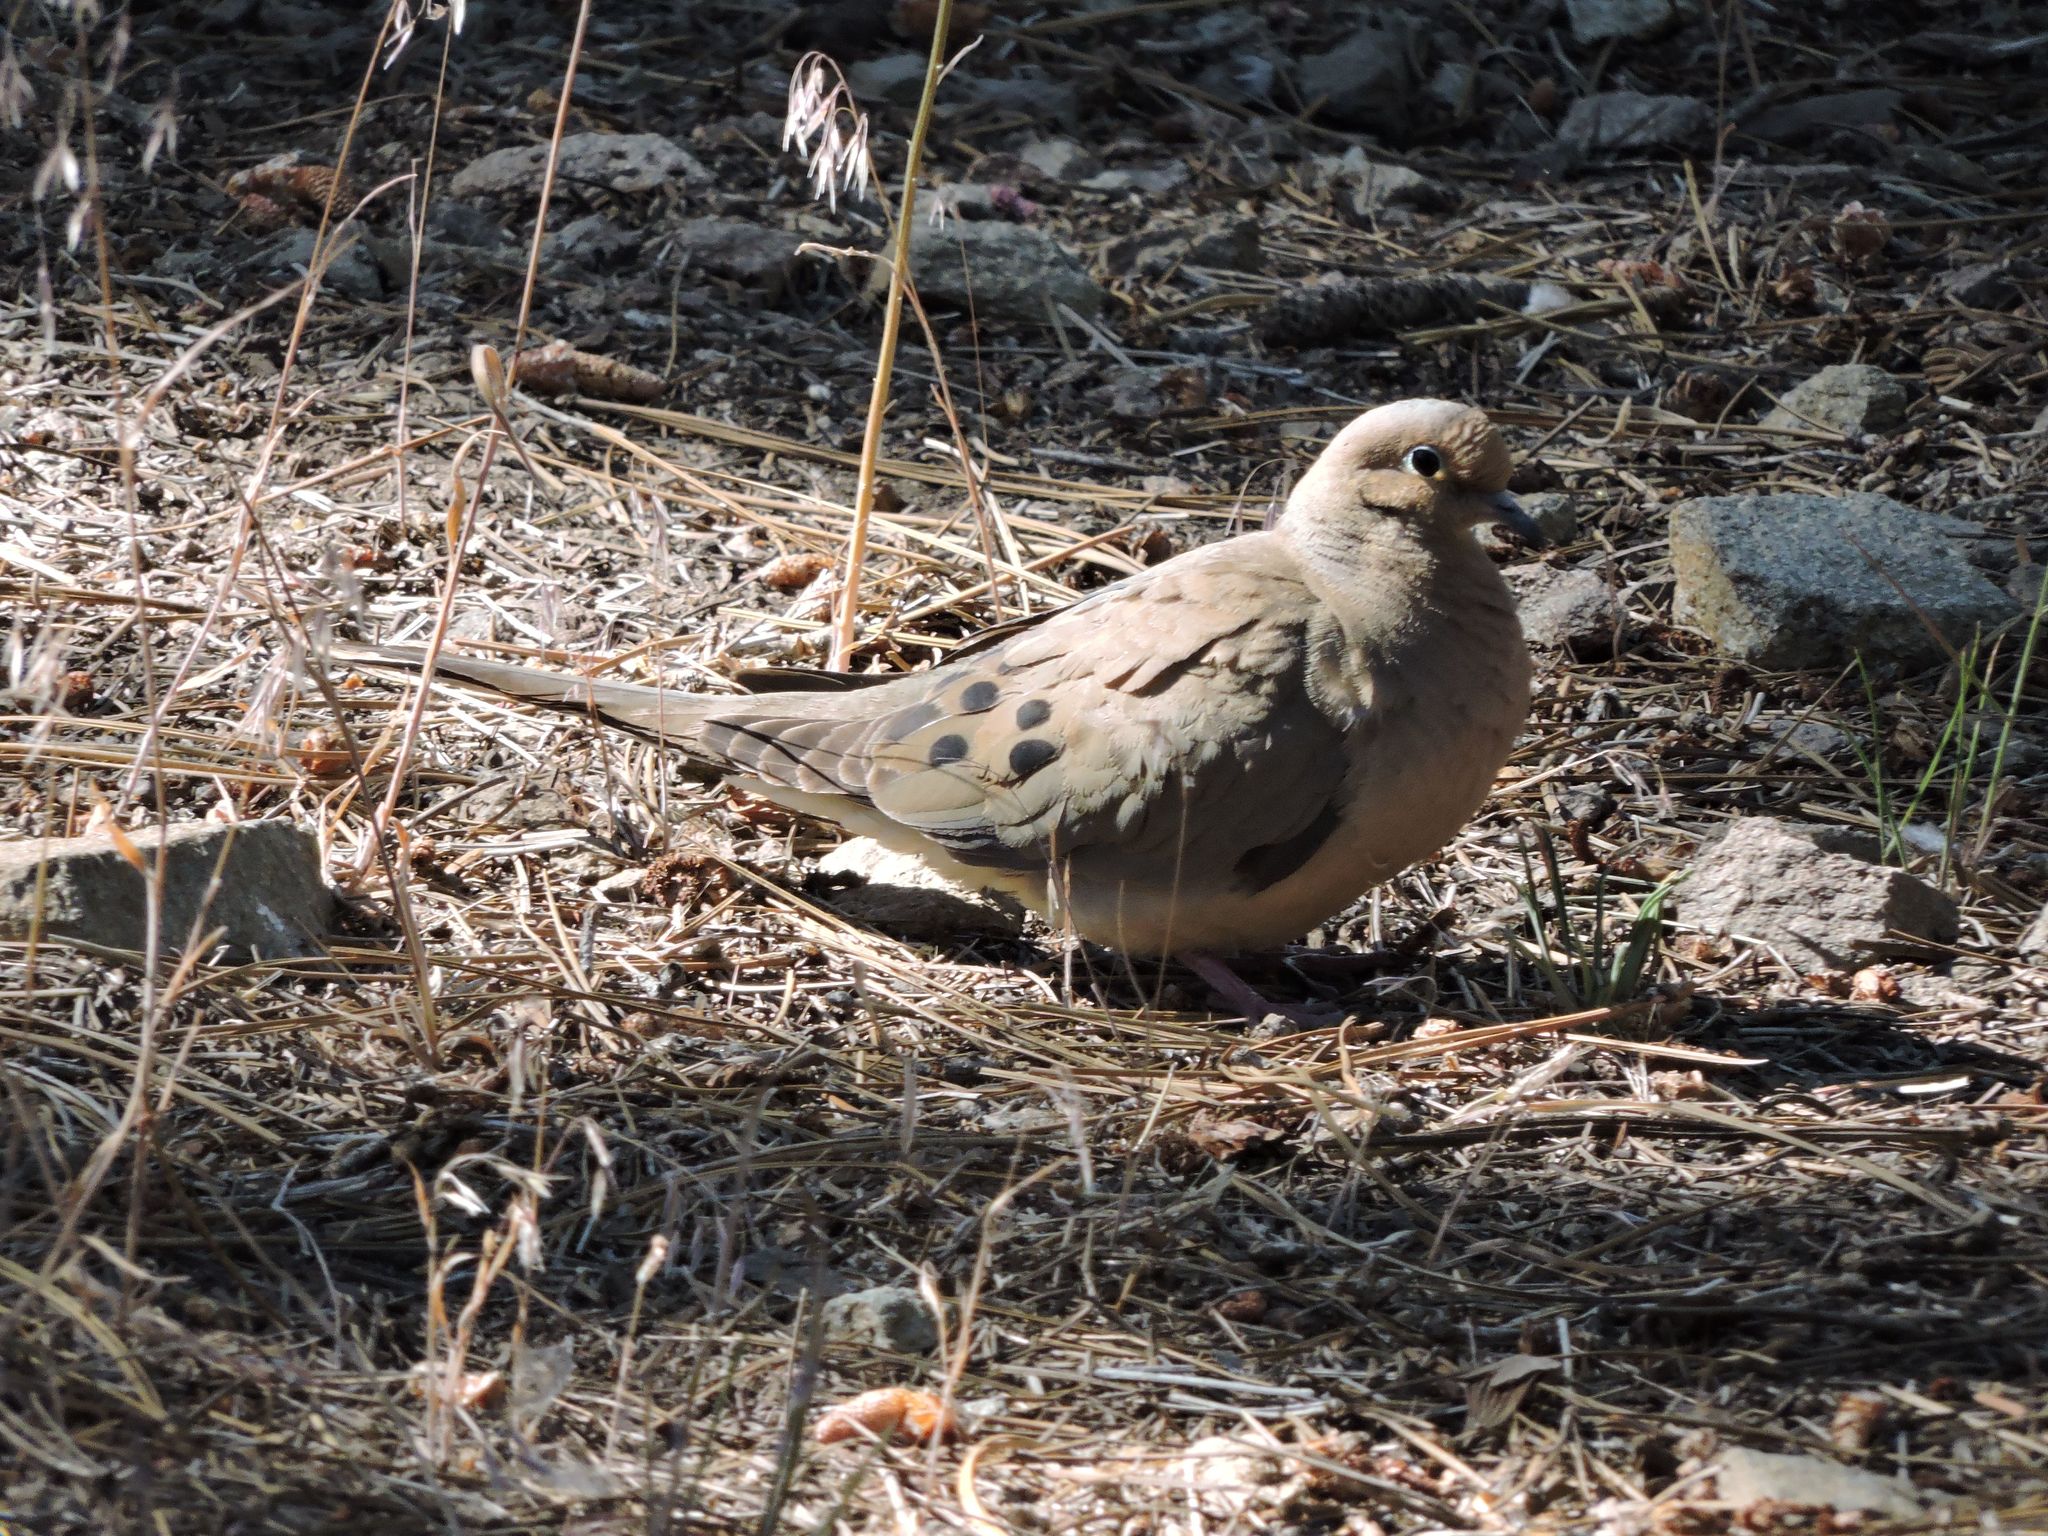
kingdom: Animalia
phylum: Chordata
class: Aves
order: Columbiformes
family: Columbidae
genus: Zenaida
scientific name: Zenaida macroura
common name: Mourning dove
